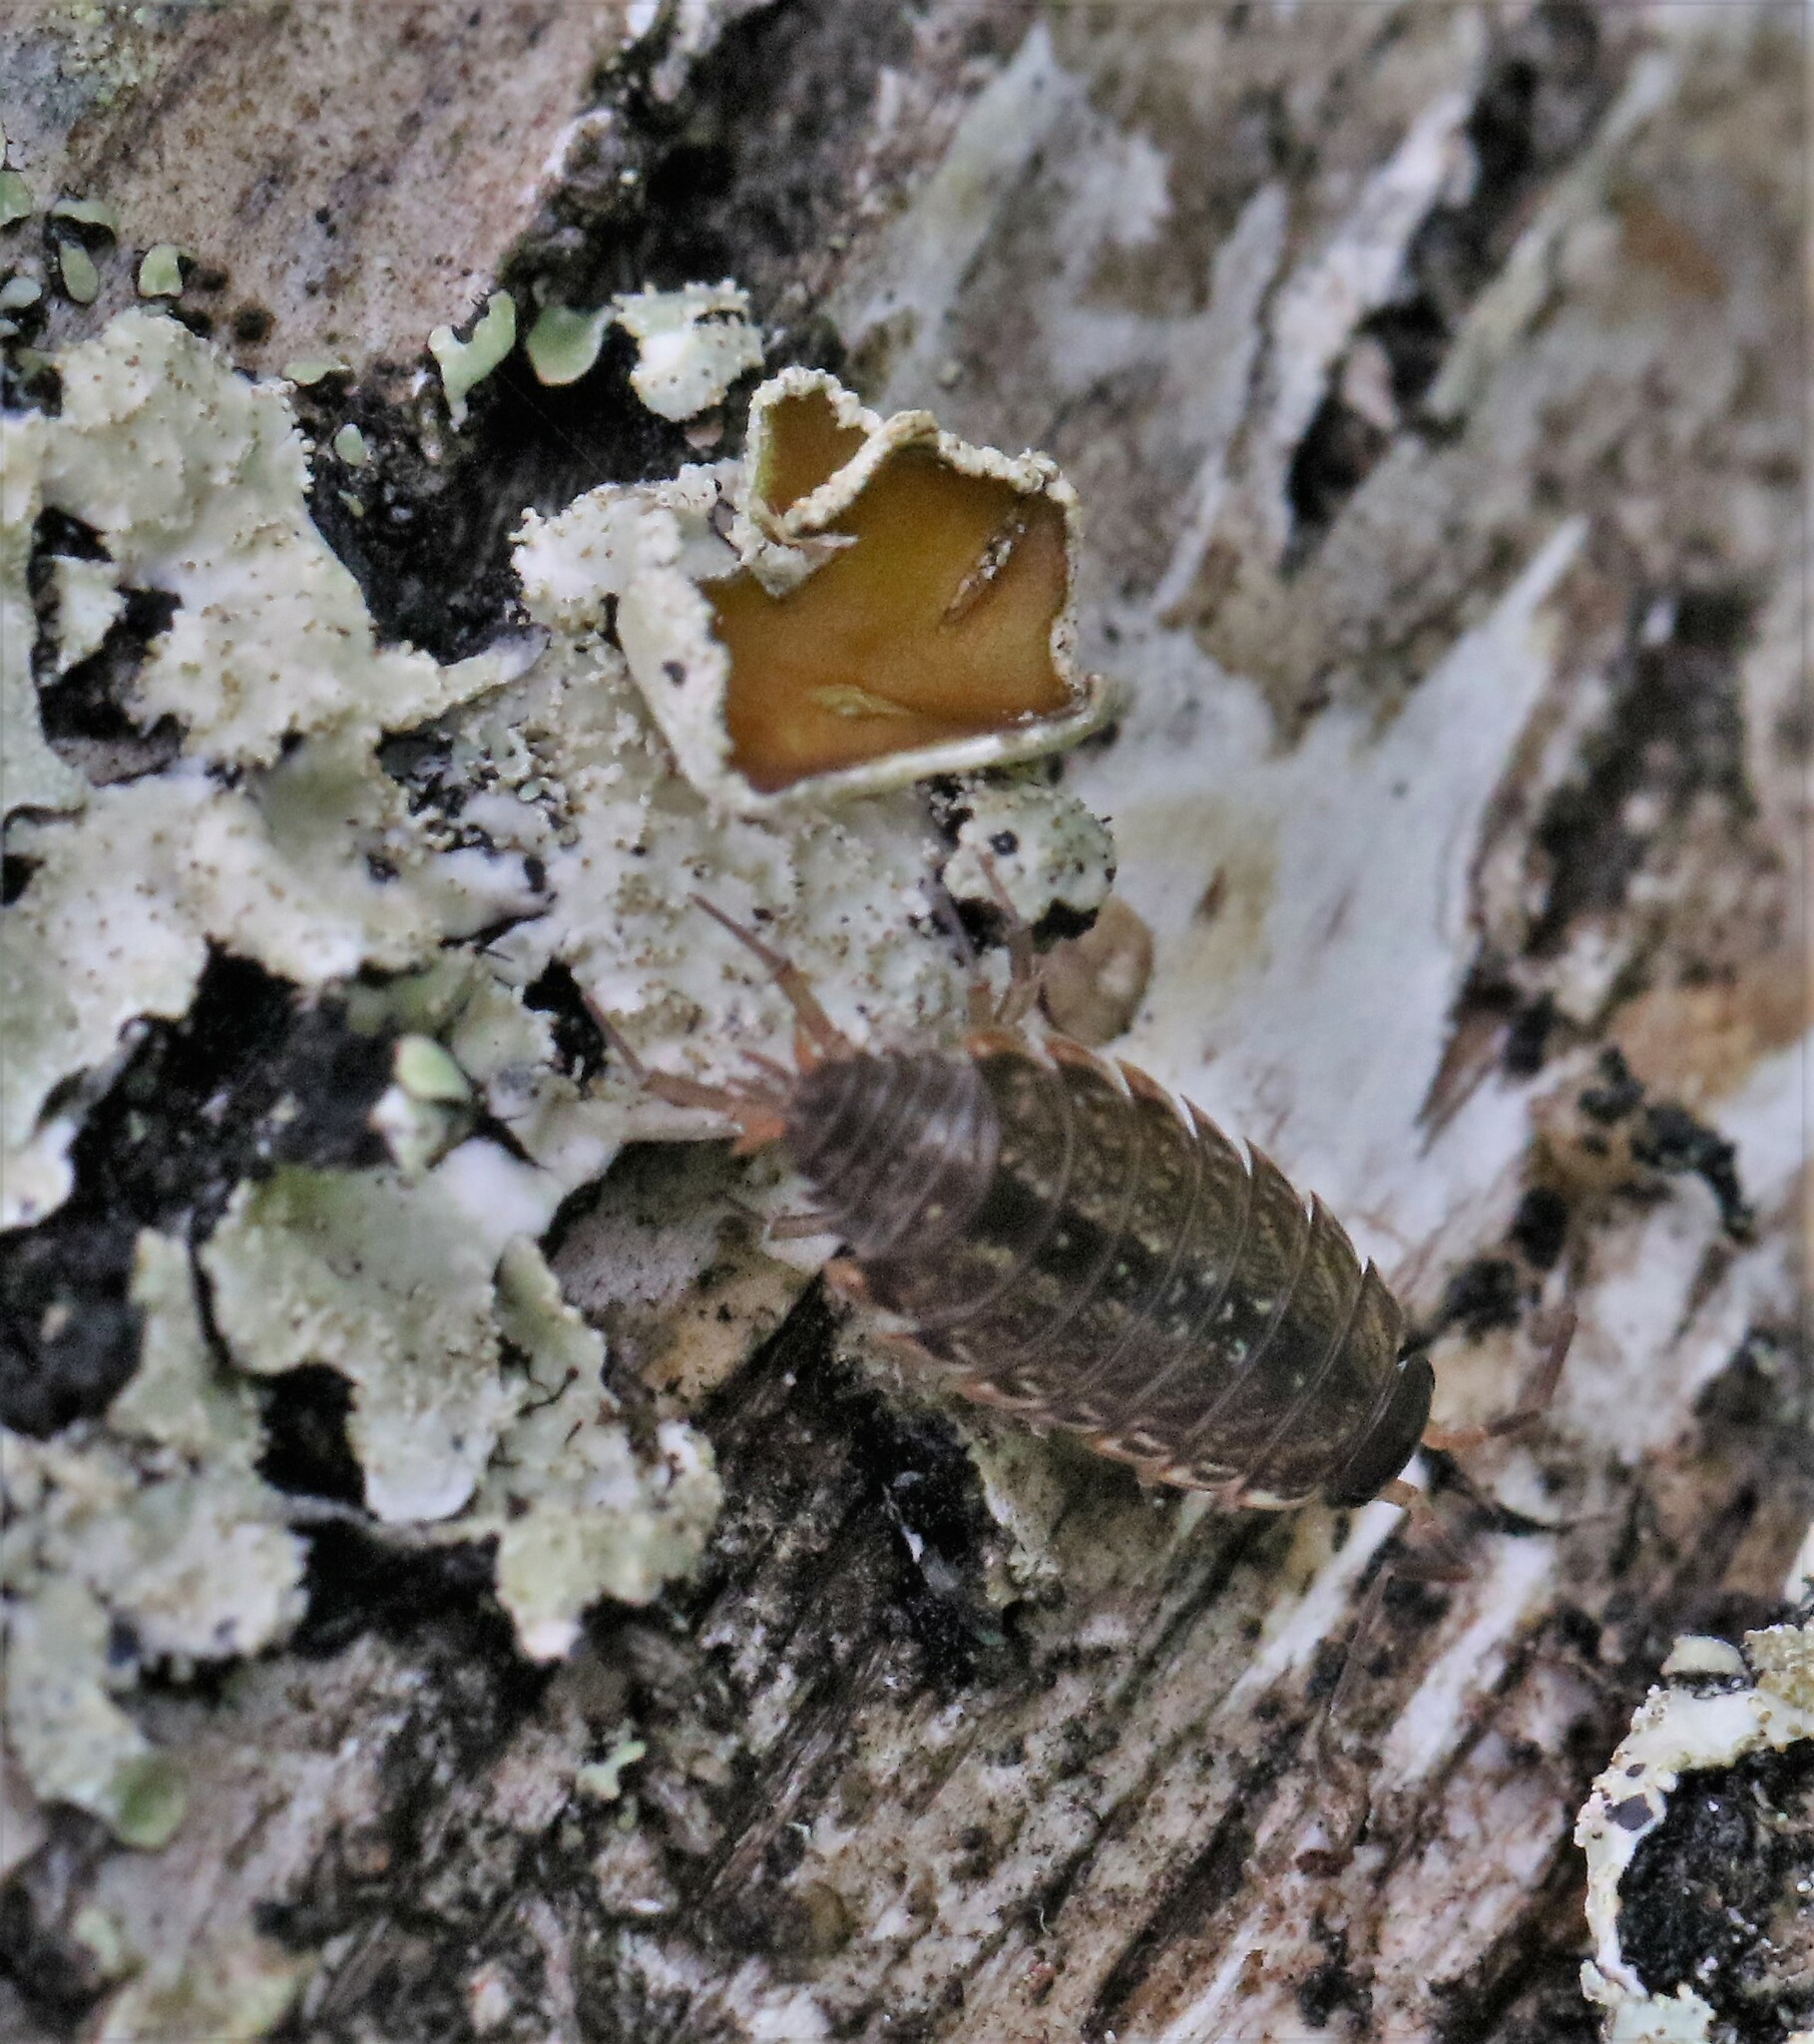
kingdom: Animalia
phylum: Arthropoda
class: Malacostraca
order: Isopoda
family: Philosciidae
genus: Philoscia
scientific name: Philoscia muscorum
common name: Common striped woodlouse
